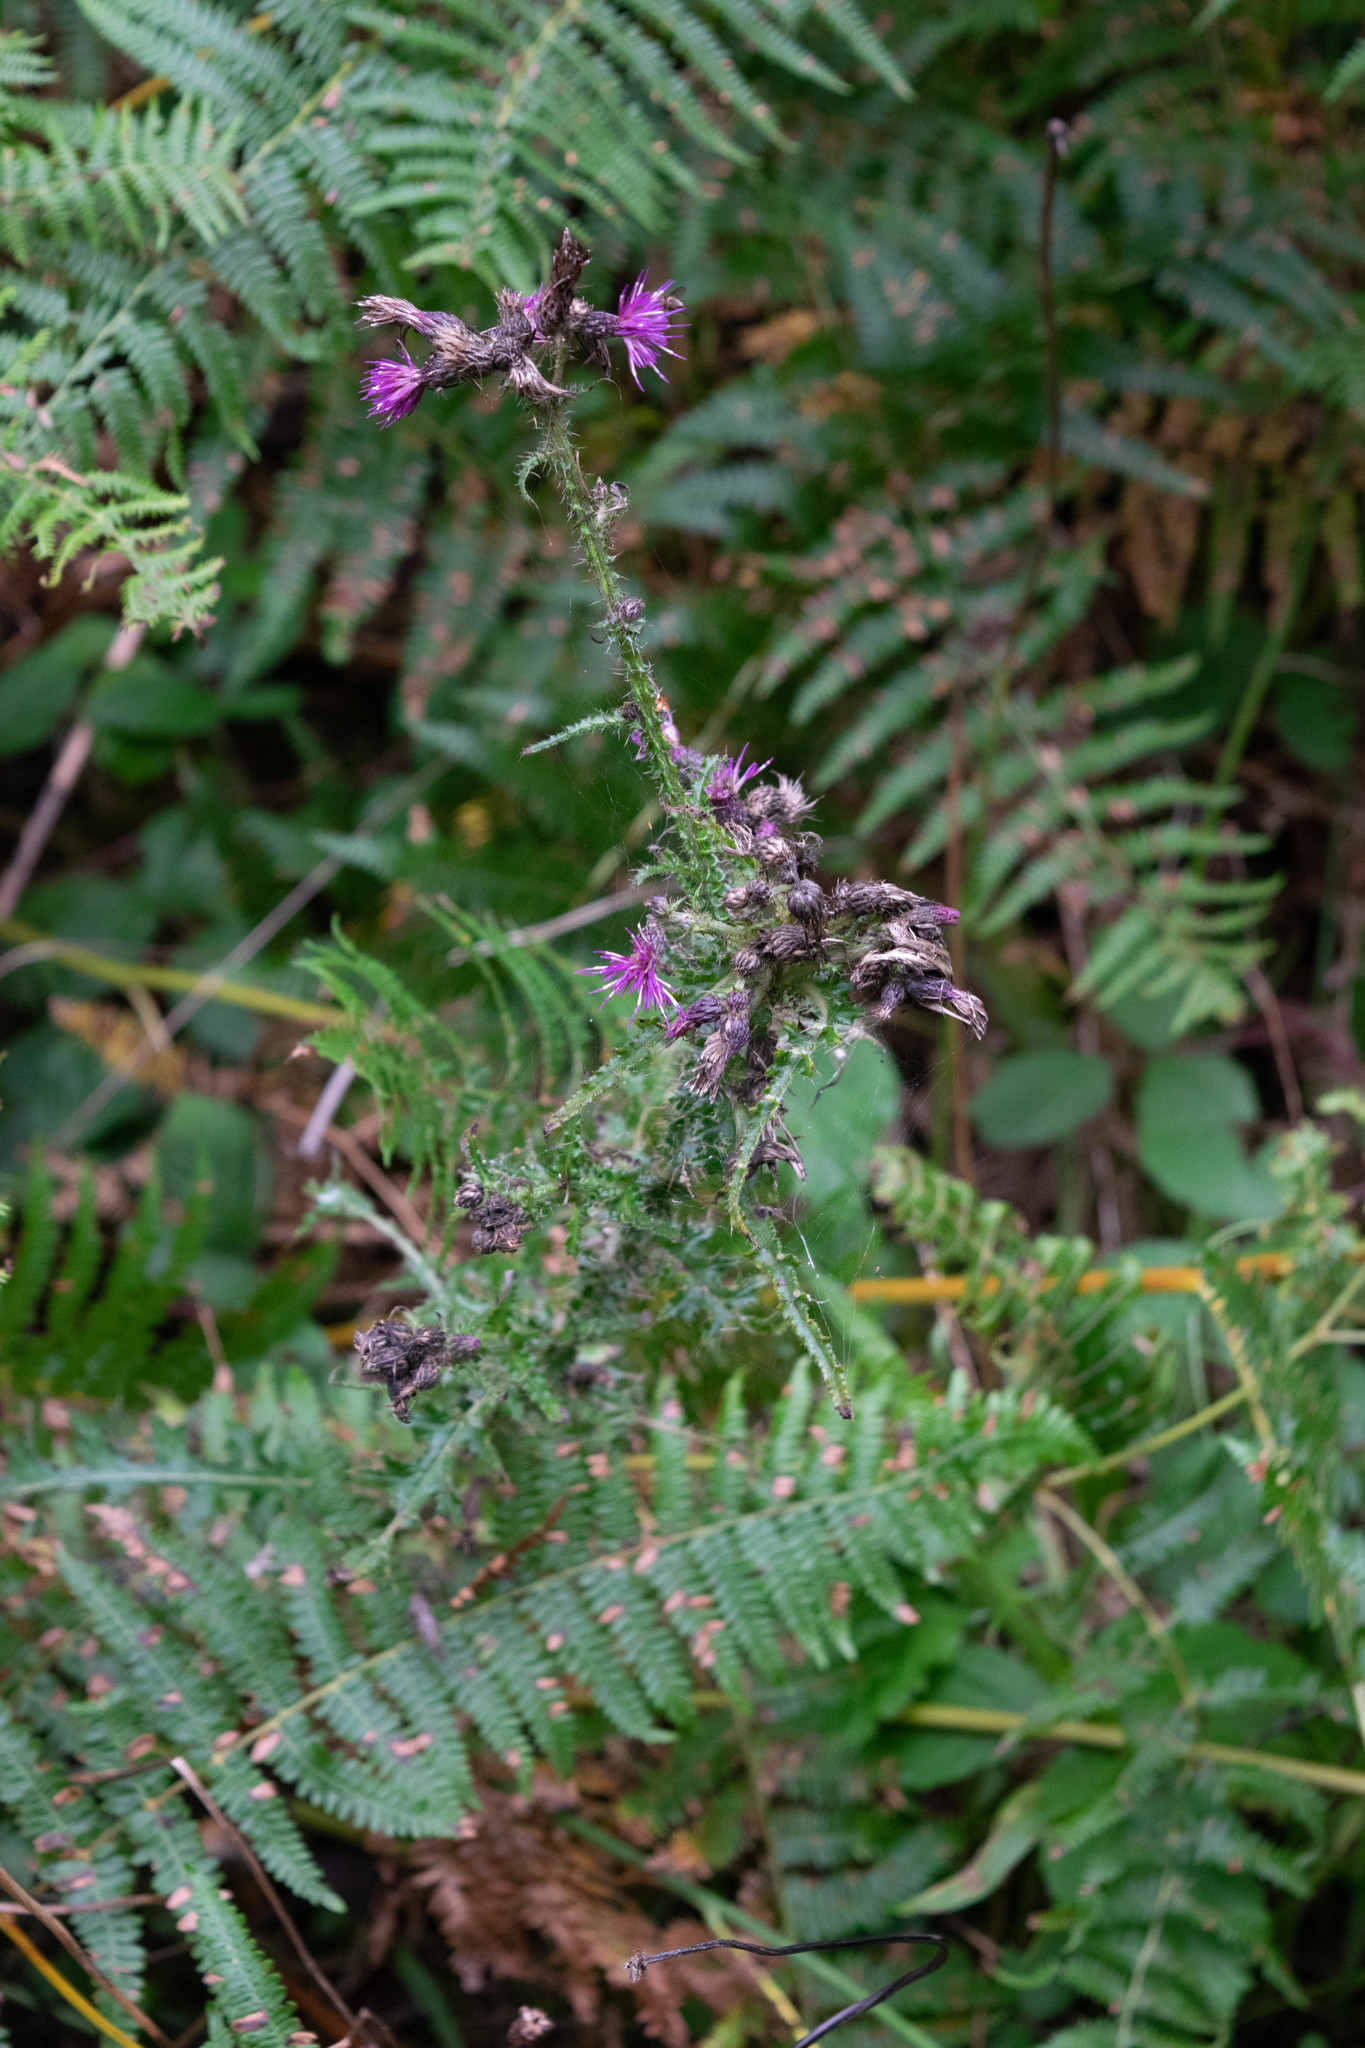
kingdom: Plantae
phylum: Tracheophyta
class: Magnoliopsida
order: Asterales
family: Asteraceae
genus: Cirsium
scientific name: Cirsium palustre
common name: Marsh thistle
